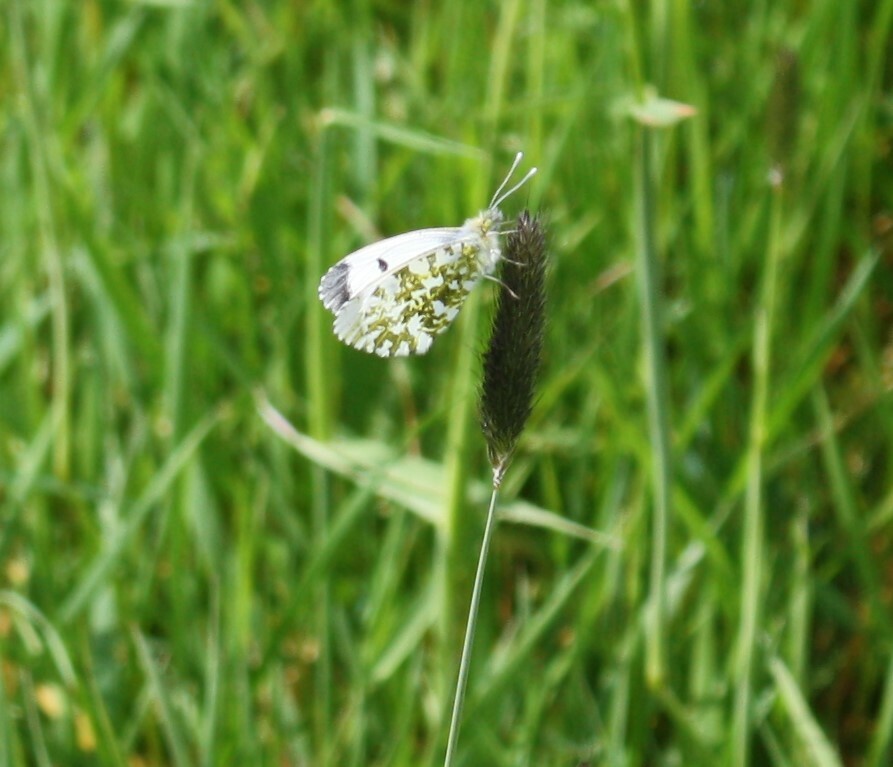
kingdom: Animalia
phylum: Arthropoda
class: Insecta
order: Lepidoptera
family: Pieridae
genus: Anthocharis
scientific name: Anthocharis cardamines
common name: Orange-tip
